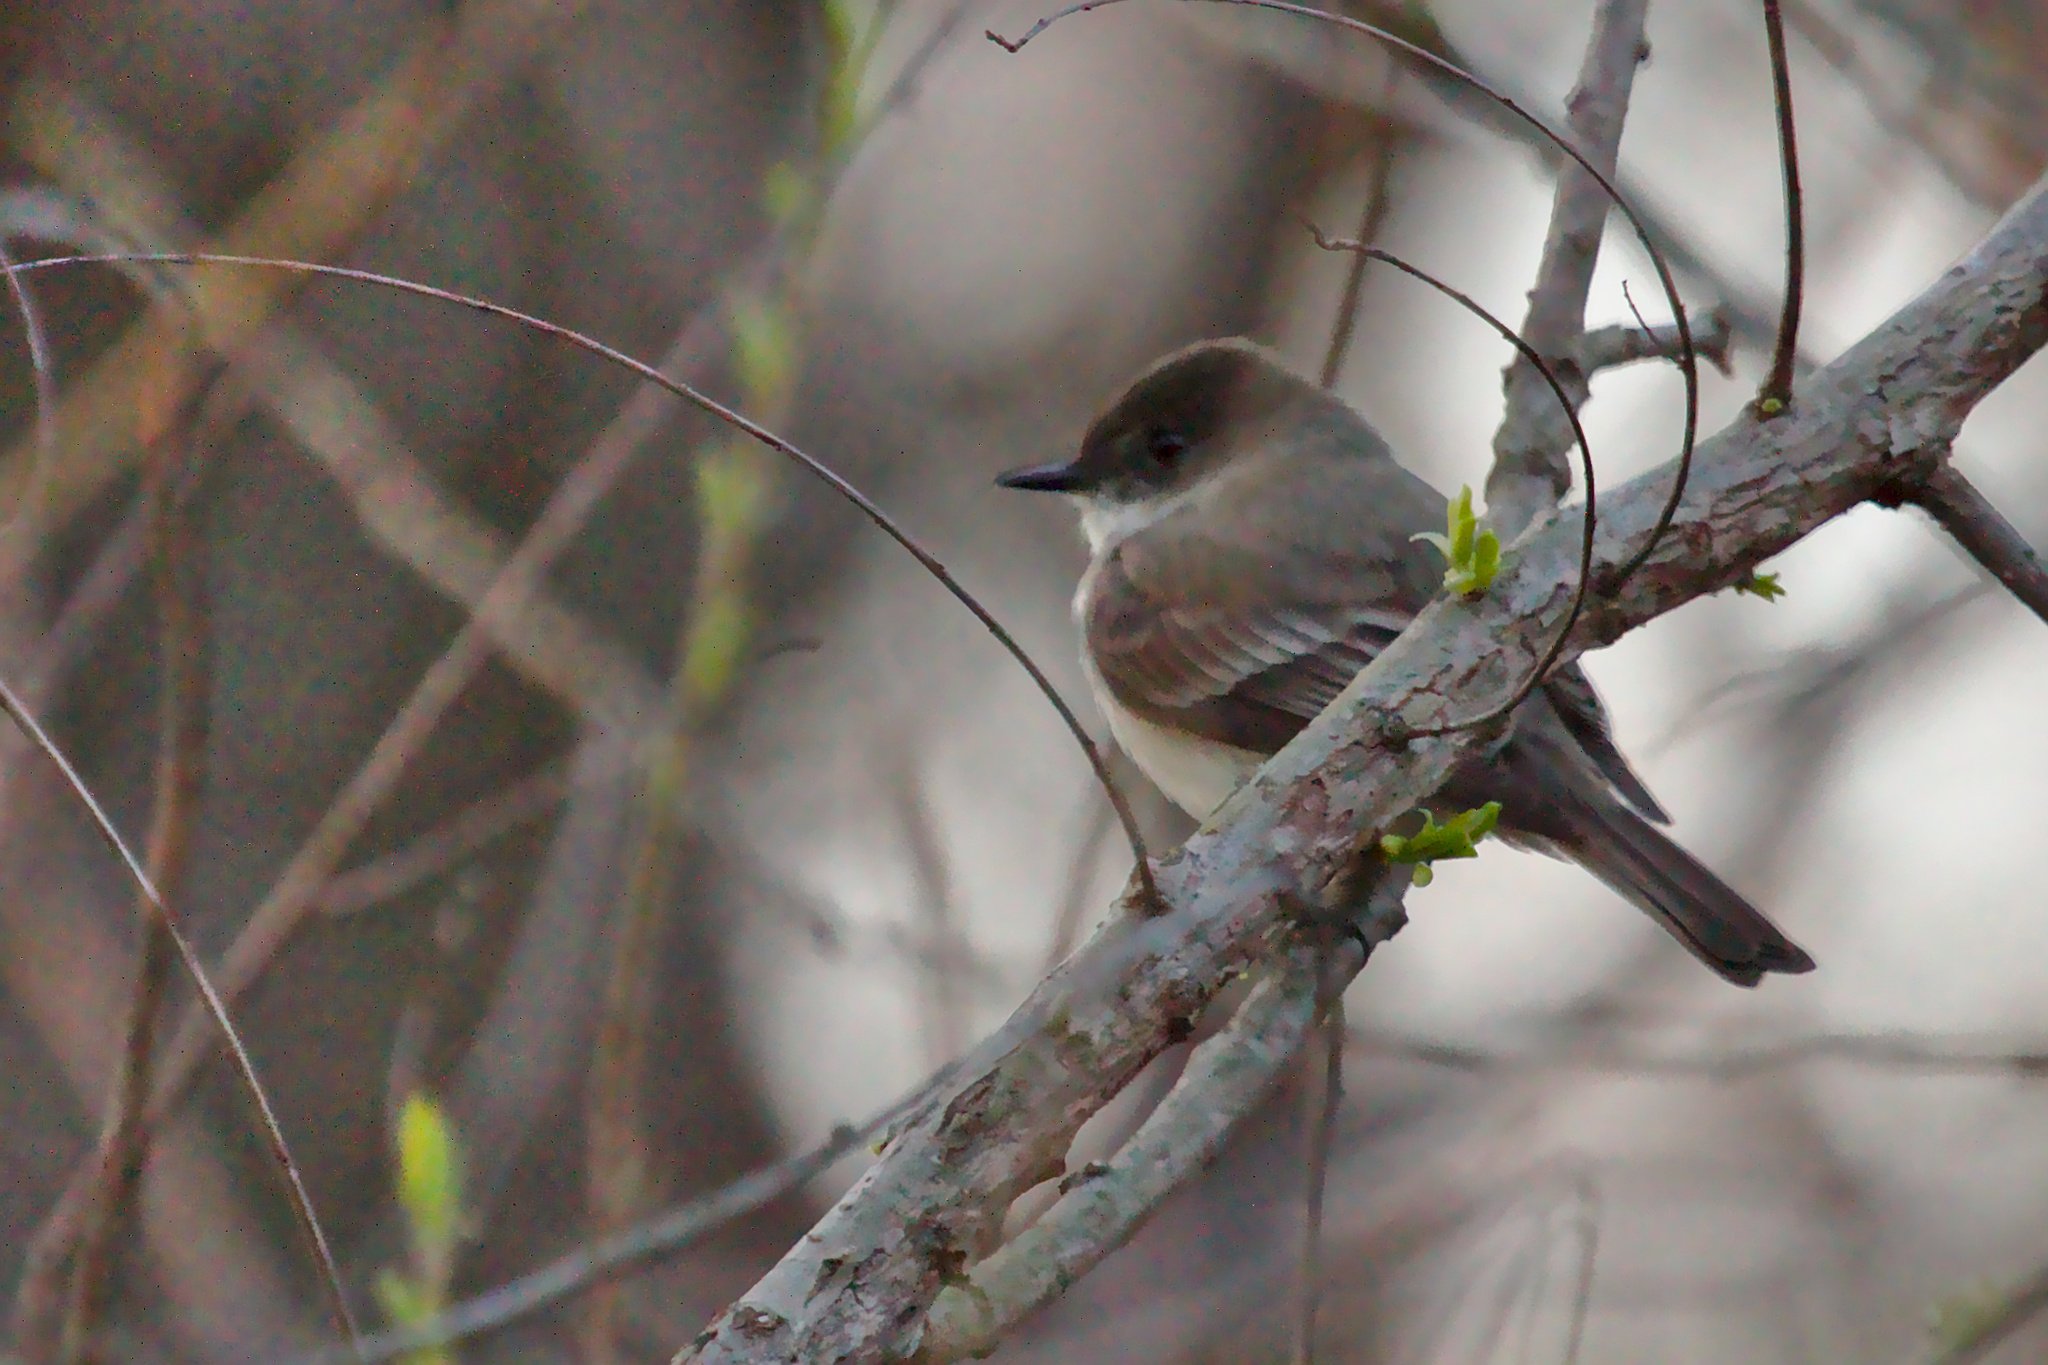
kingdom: Animalia
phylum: Chordata
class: Aves
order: Passeriformes
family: Tyrannidae
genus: Sayornis
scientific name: Sayornis phoebe
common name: Eastern phoebe
